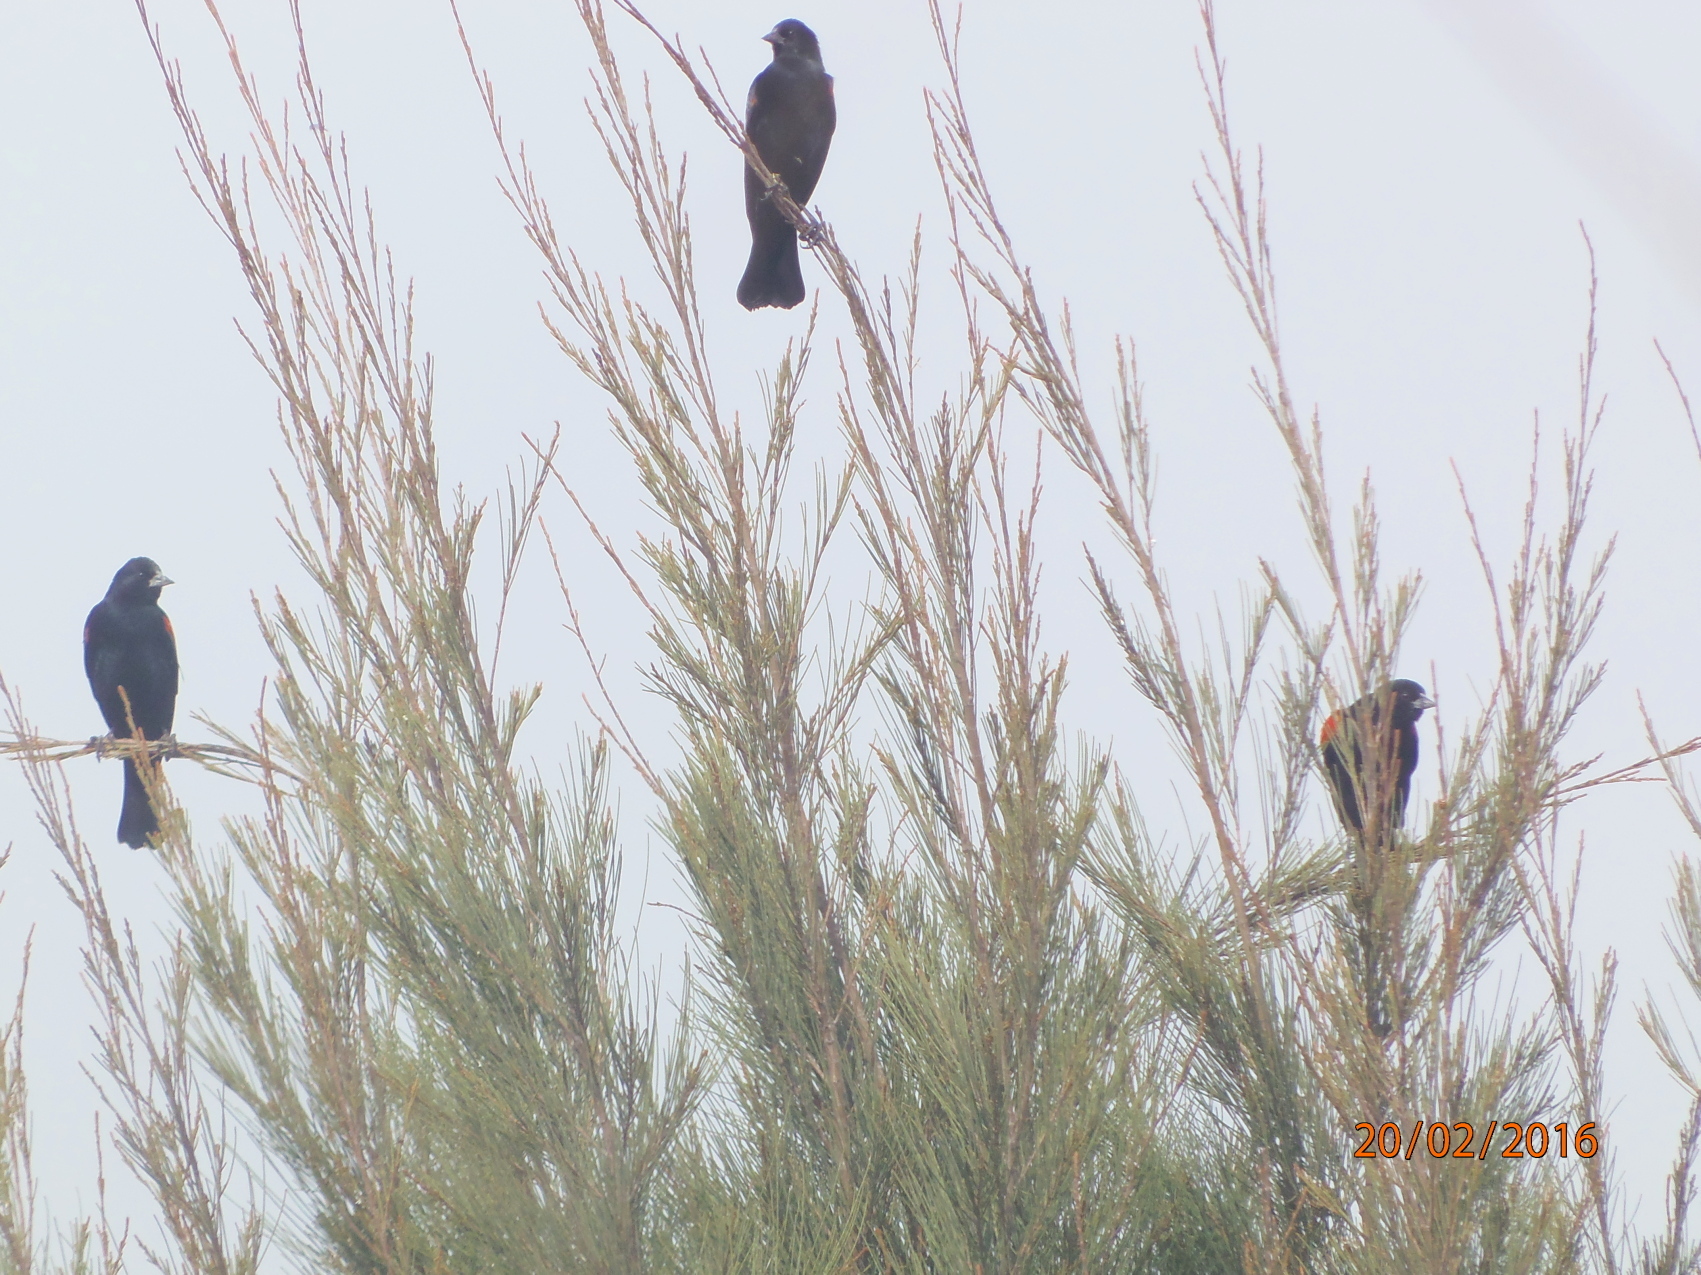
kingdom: Animalia
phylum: Chordata
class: Aves
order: Passeriformes
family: Icteridae
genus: Agelaius
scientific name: Agelaius phoeniceus
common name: Red-winged blackbird
